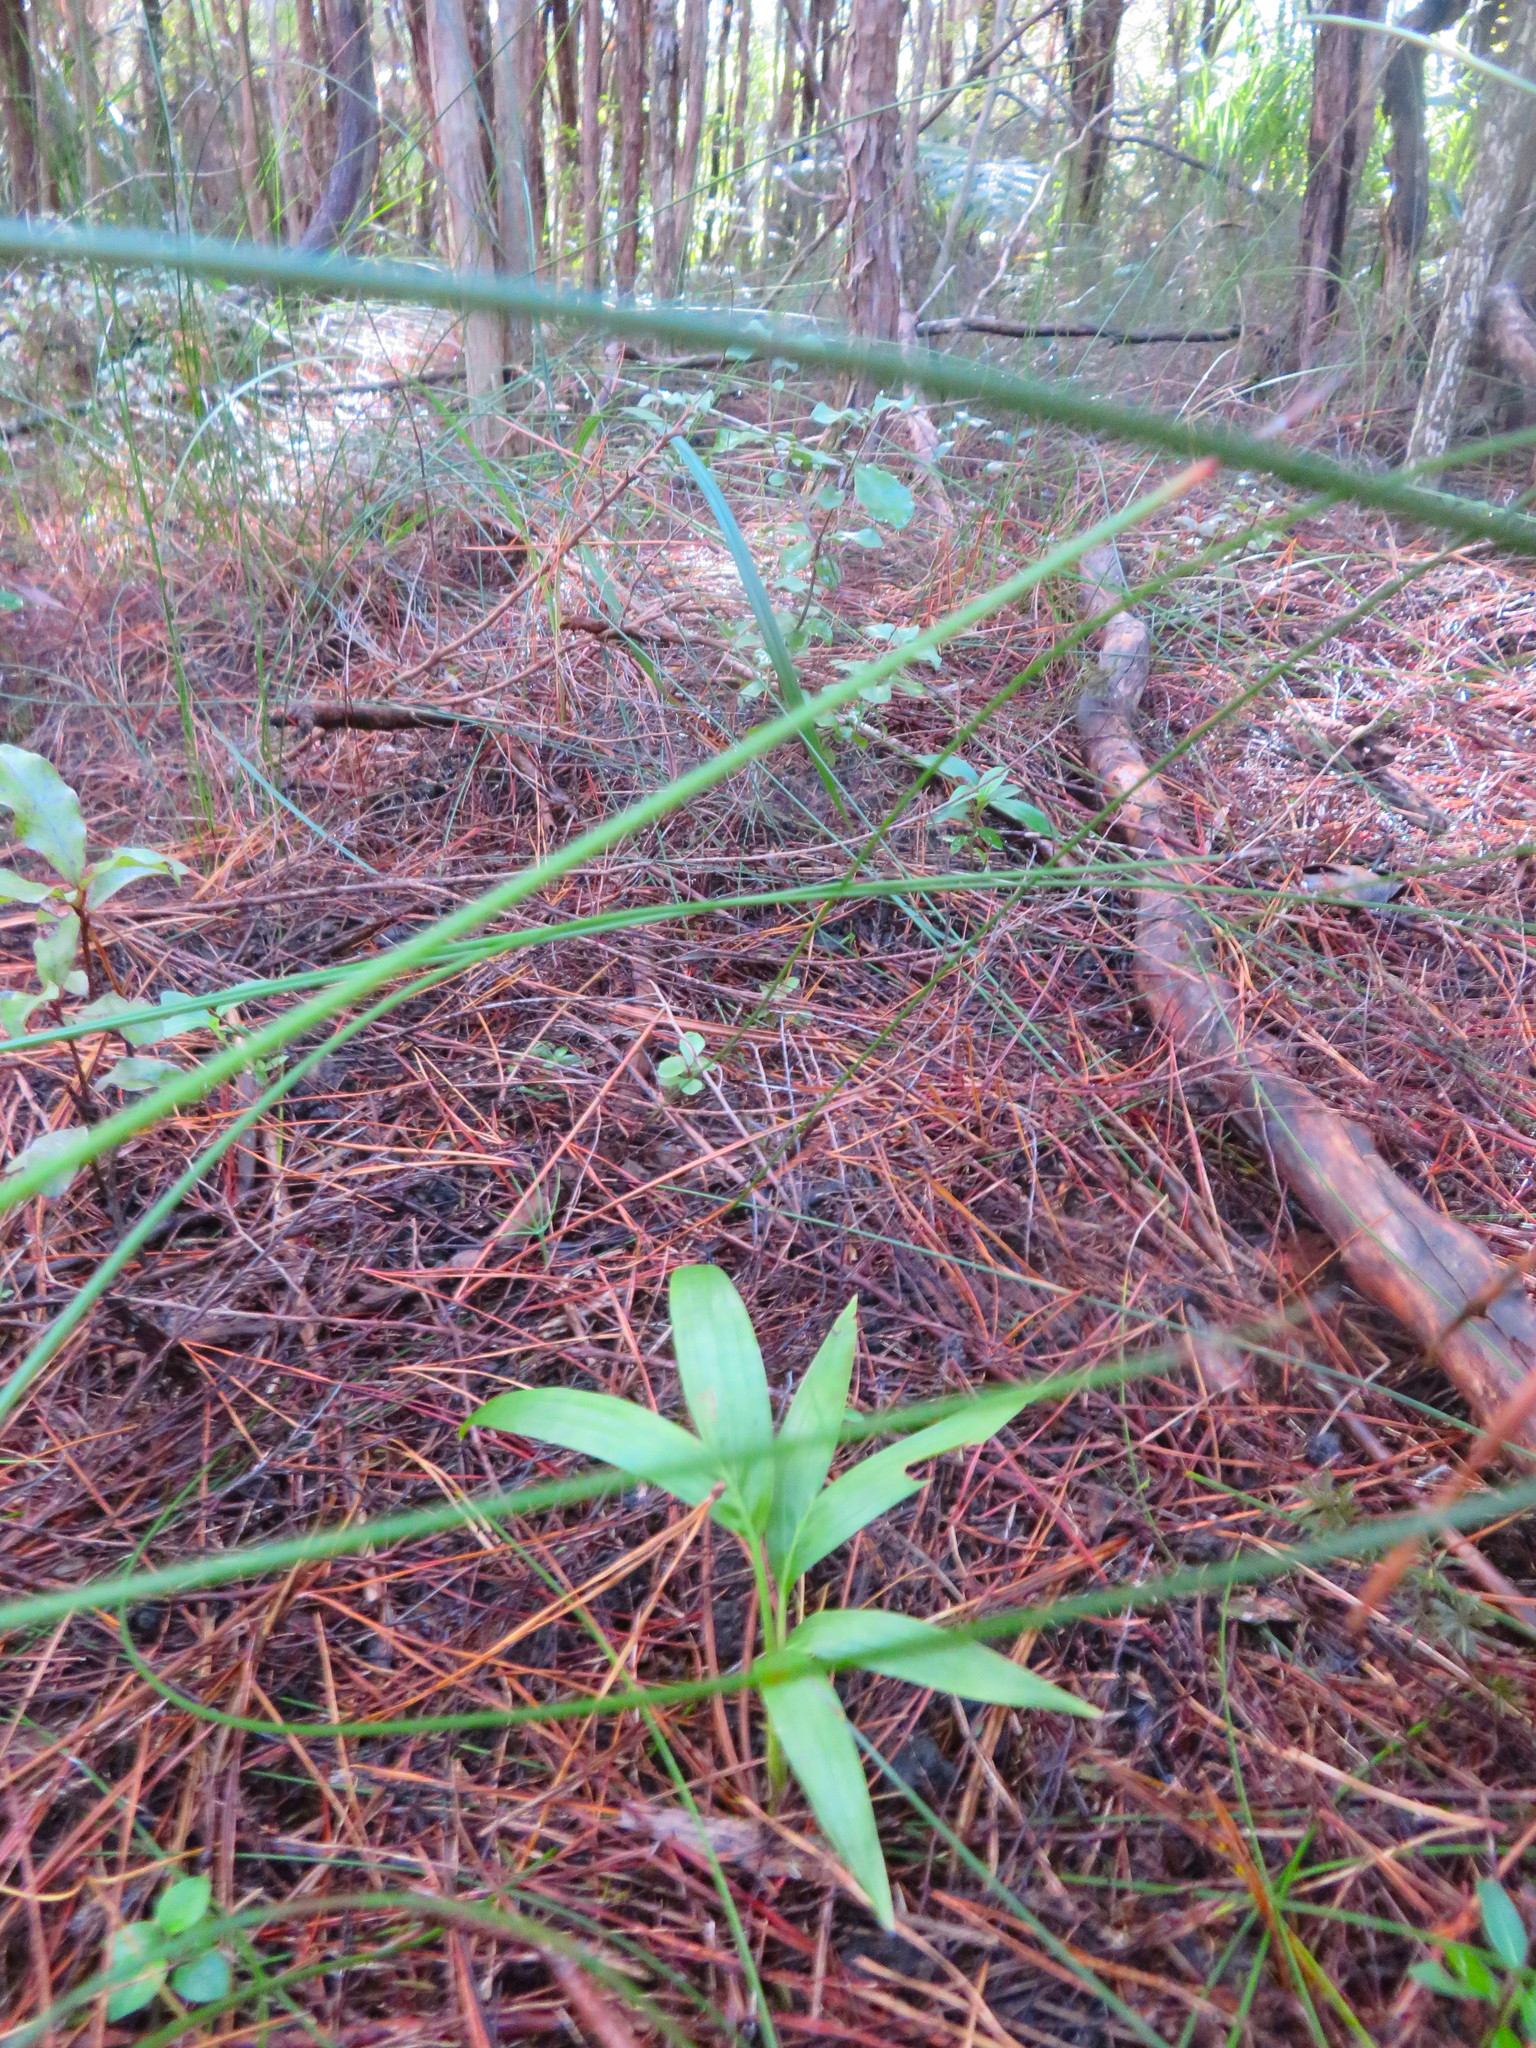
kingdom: Plantae
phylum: Tracheophyta
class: Liliopsida
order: Arecales
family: Arecaceae
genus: Archontophoenix
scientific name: Archontophoenix cunninghamiana
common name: Piccabeen bangalow palm
